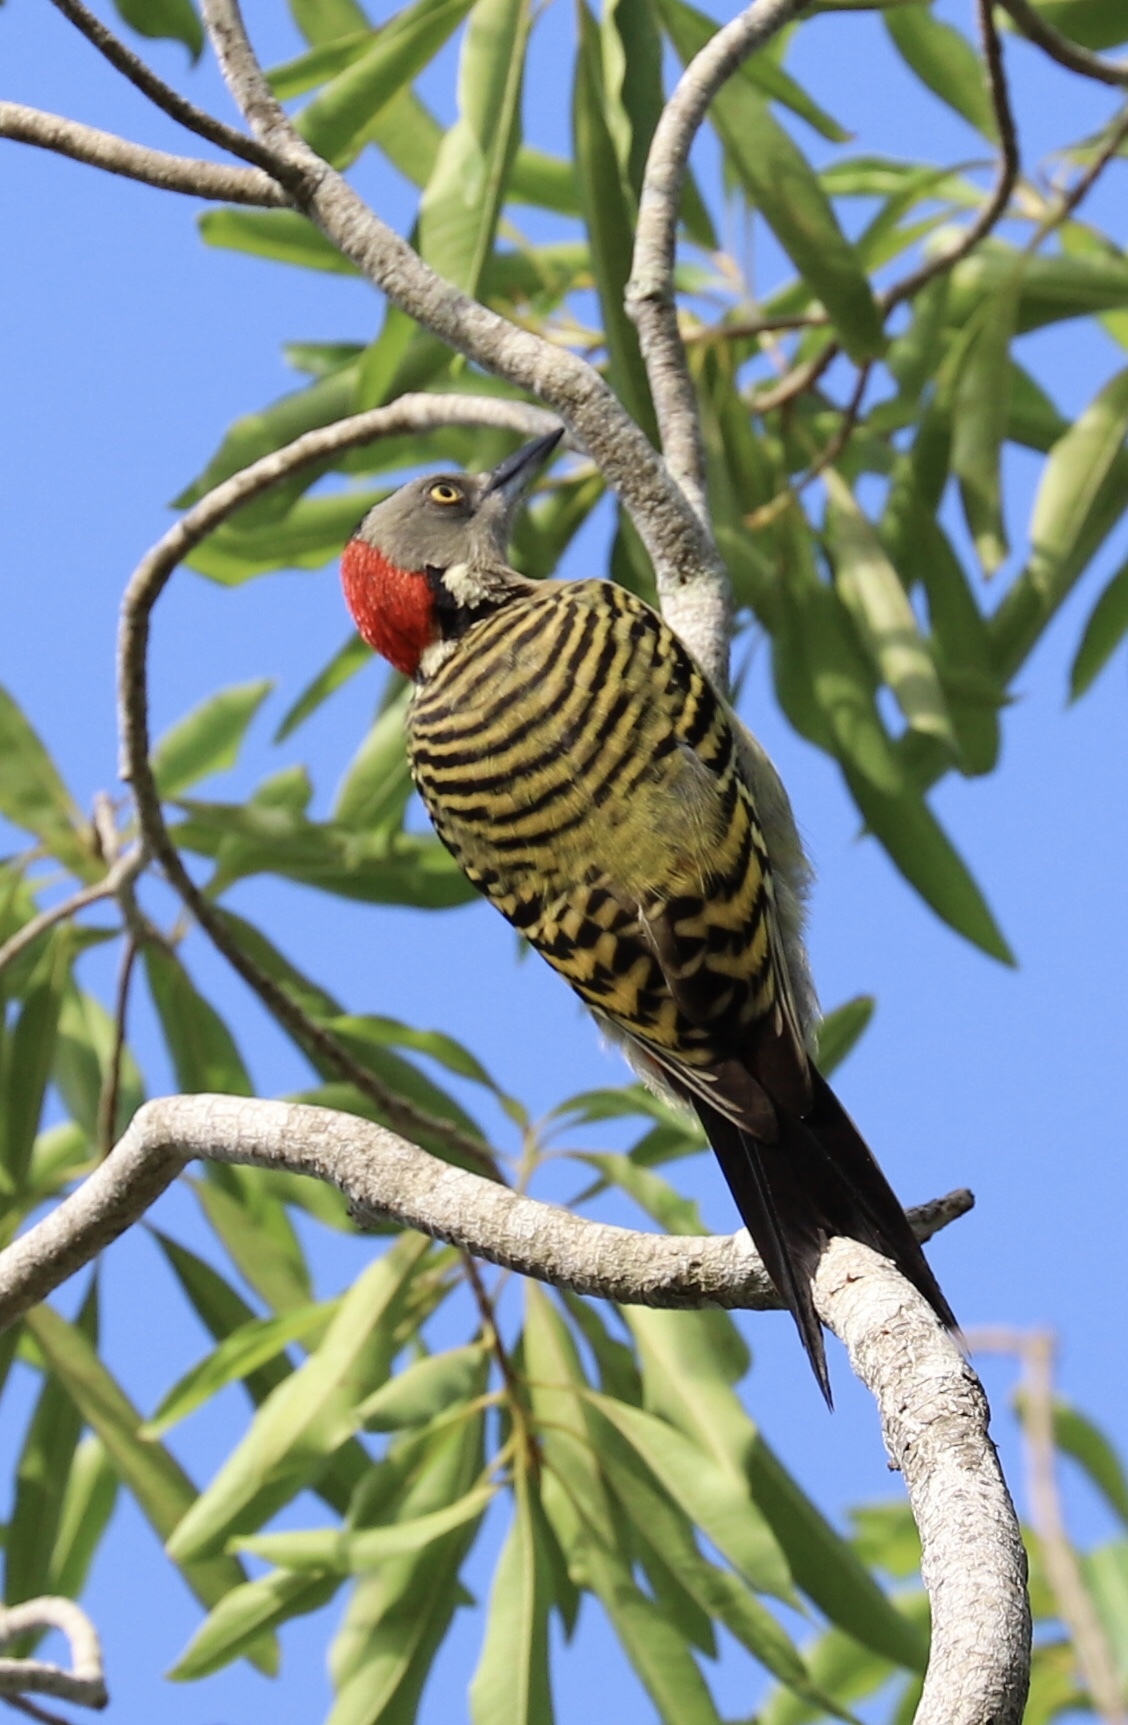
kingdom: Animalia
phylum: Chordata
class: Aves
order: Piciformes
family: Picidae
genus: Melanerpes
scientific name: Melanerpes striatus
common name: Hispaniolan woodpecker
